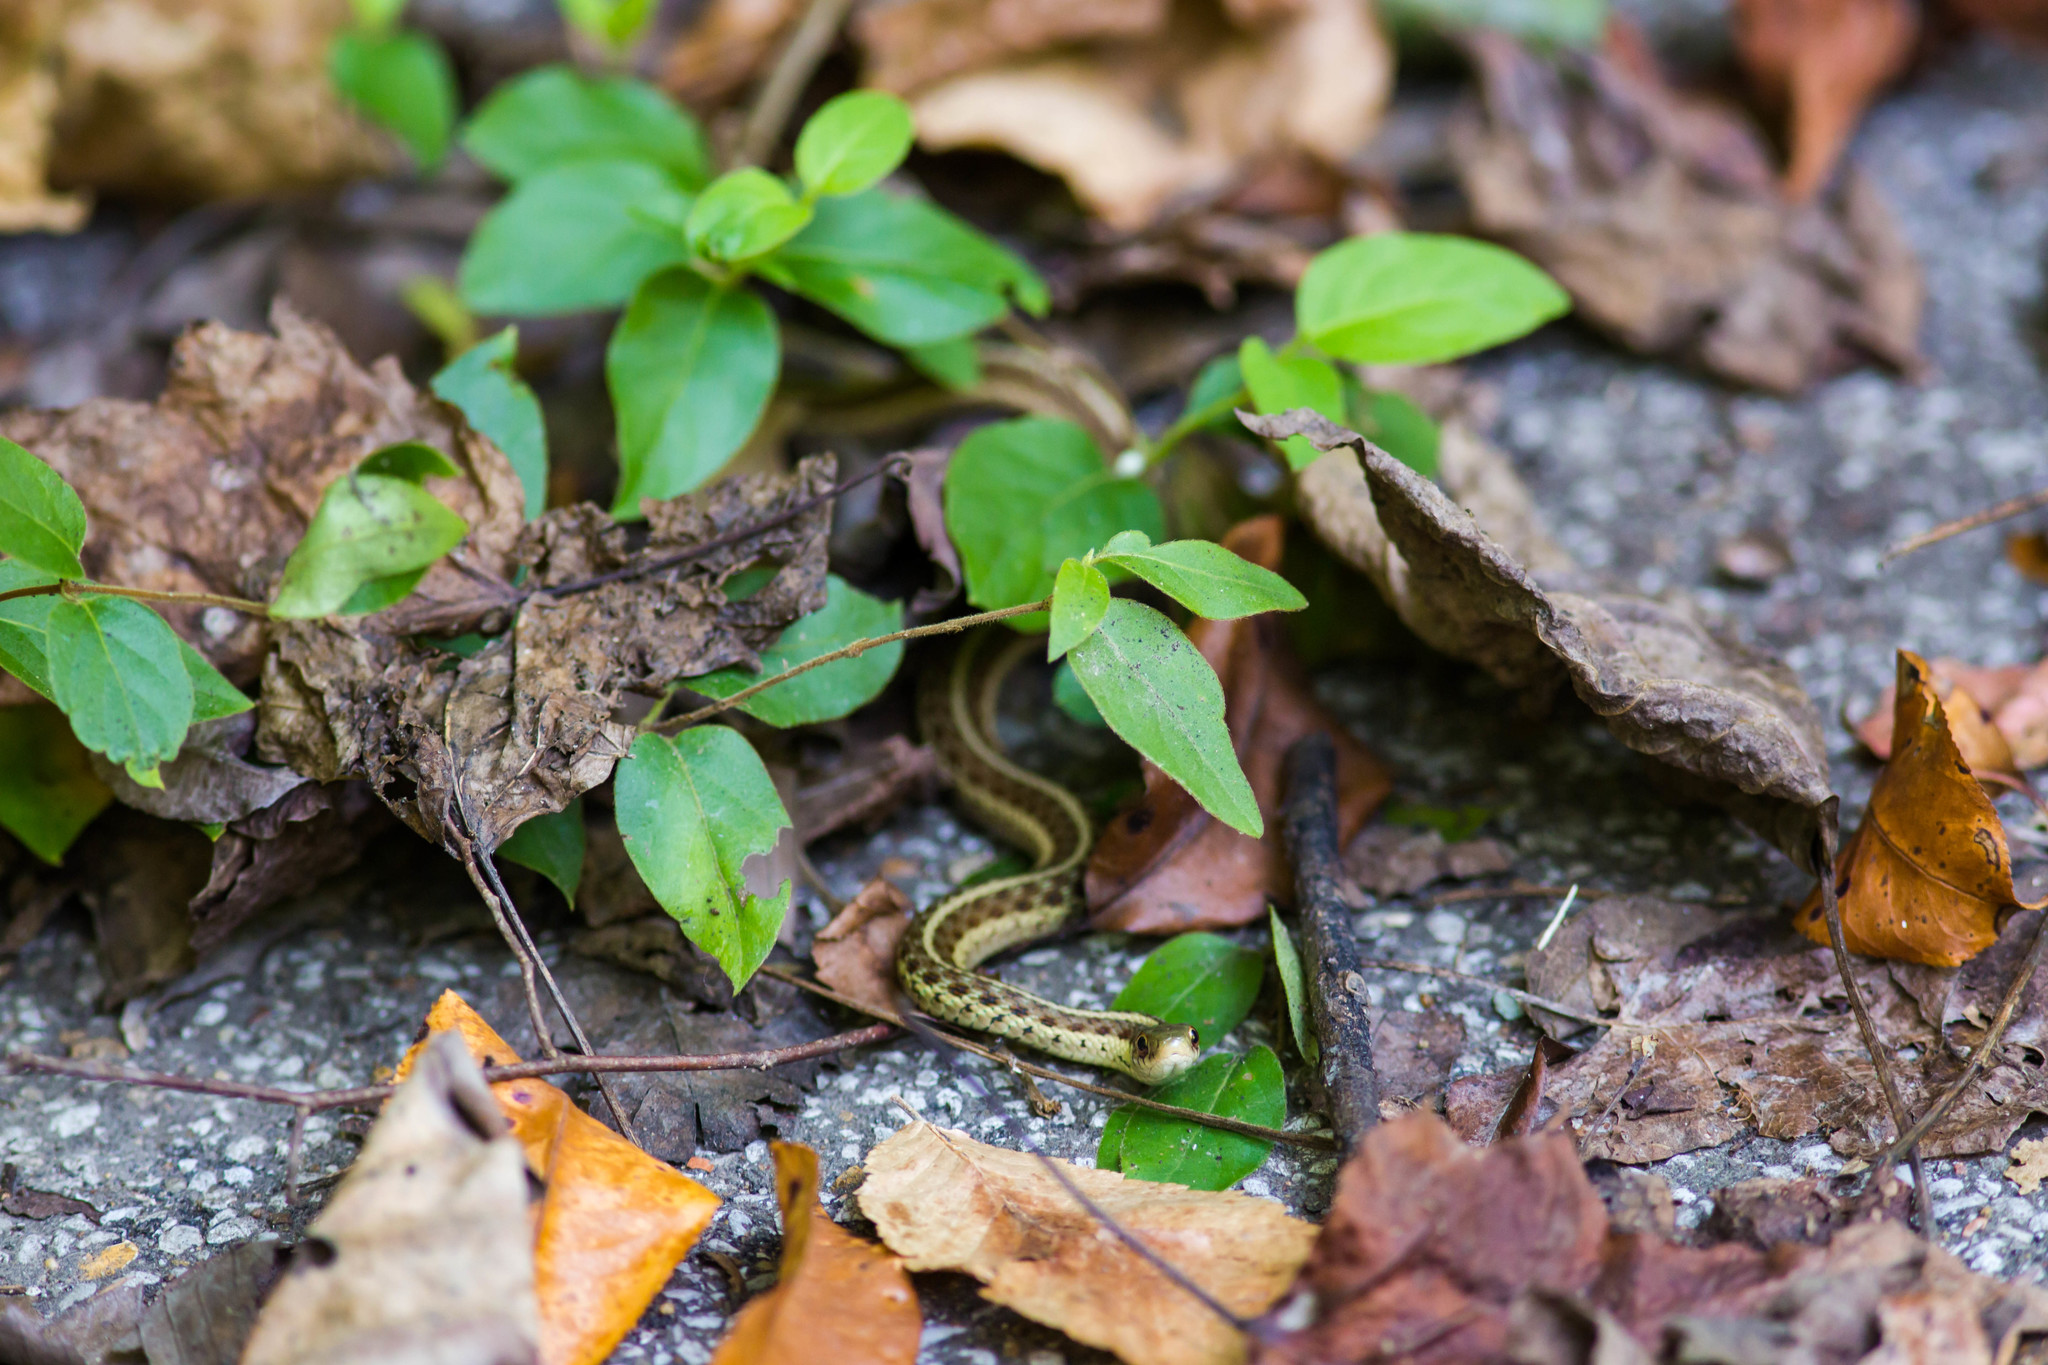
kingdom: Animalia
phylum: Chordata
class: Squamata
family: Colubridae
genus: Thamnophis
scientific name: Thamnophis sirtalis
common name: Common garter snake
